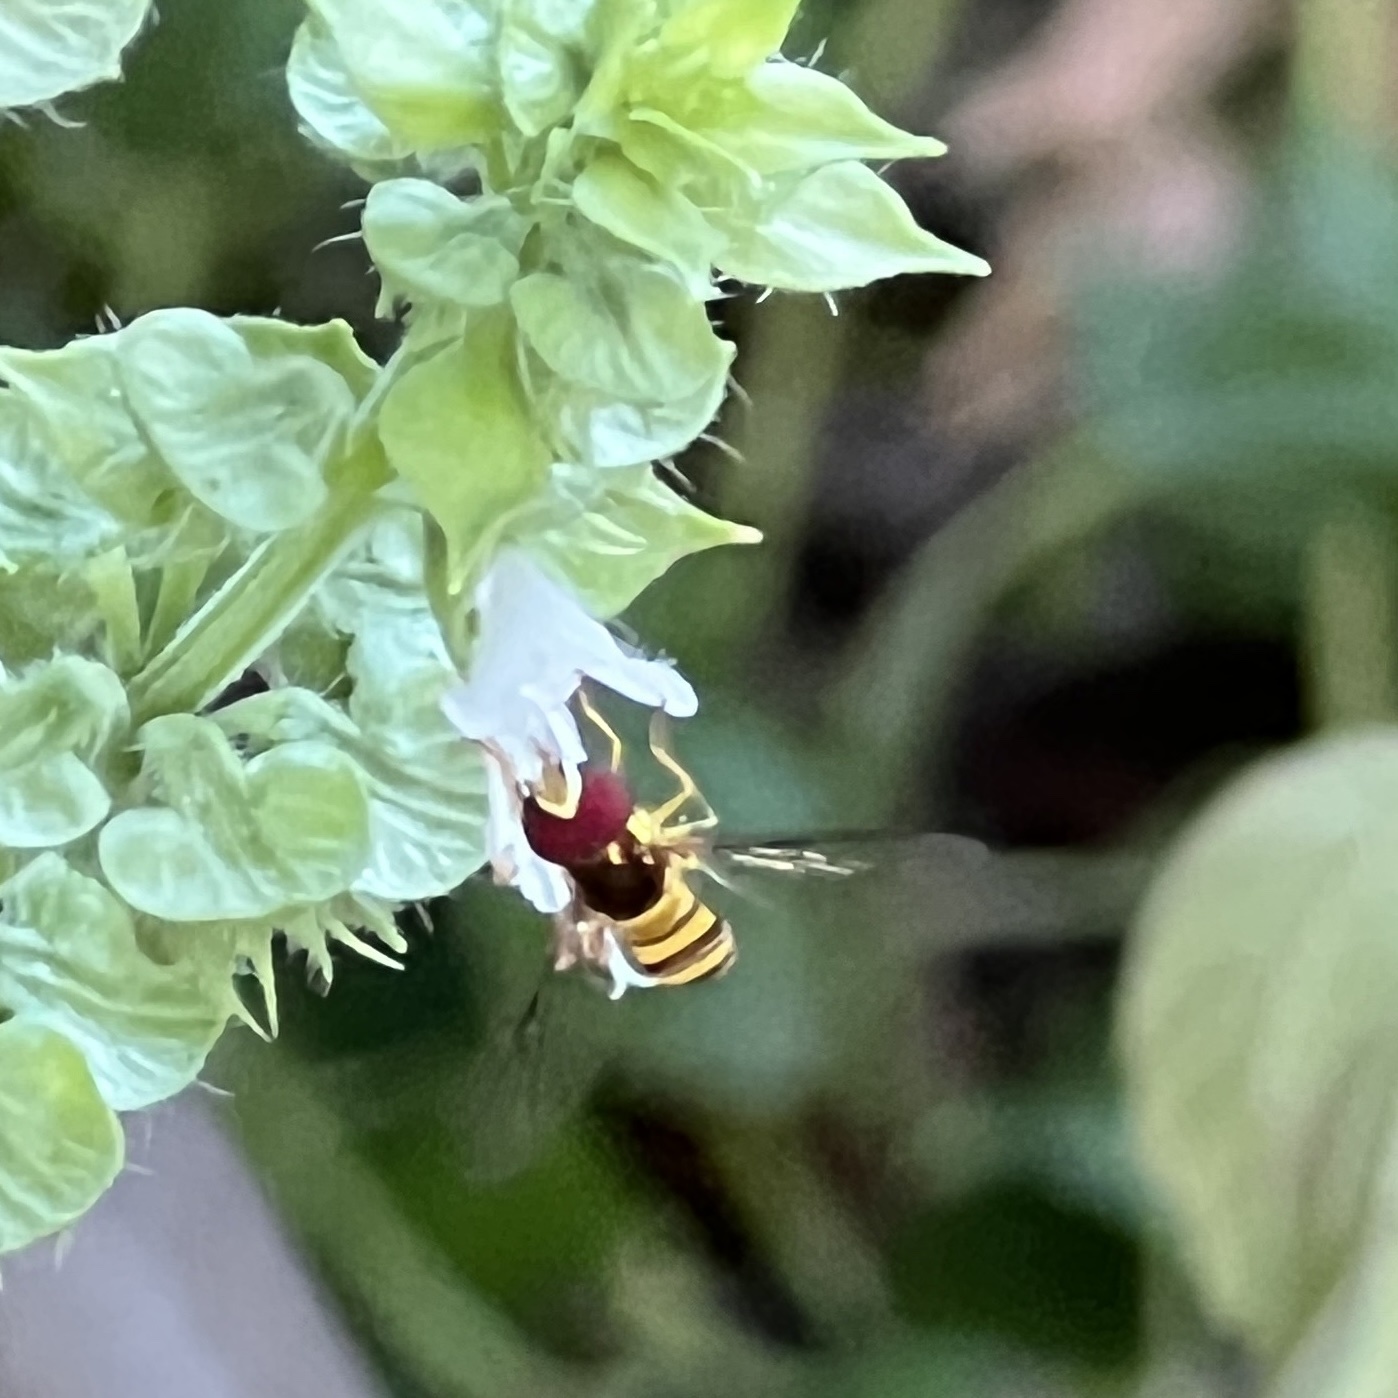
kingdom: Animalia
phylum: Arthropoda
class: Insecta
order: Diptera
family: Syrphidae
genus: Allograpta
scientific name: Allograpta obliqua
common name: Common oblique syrphid
